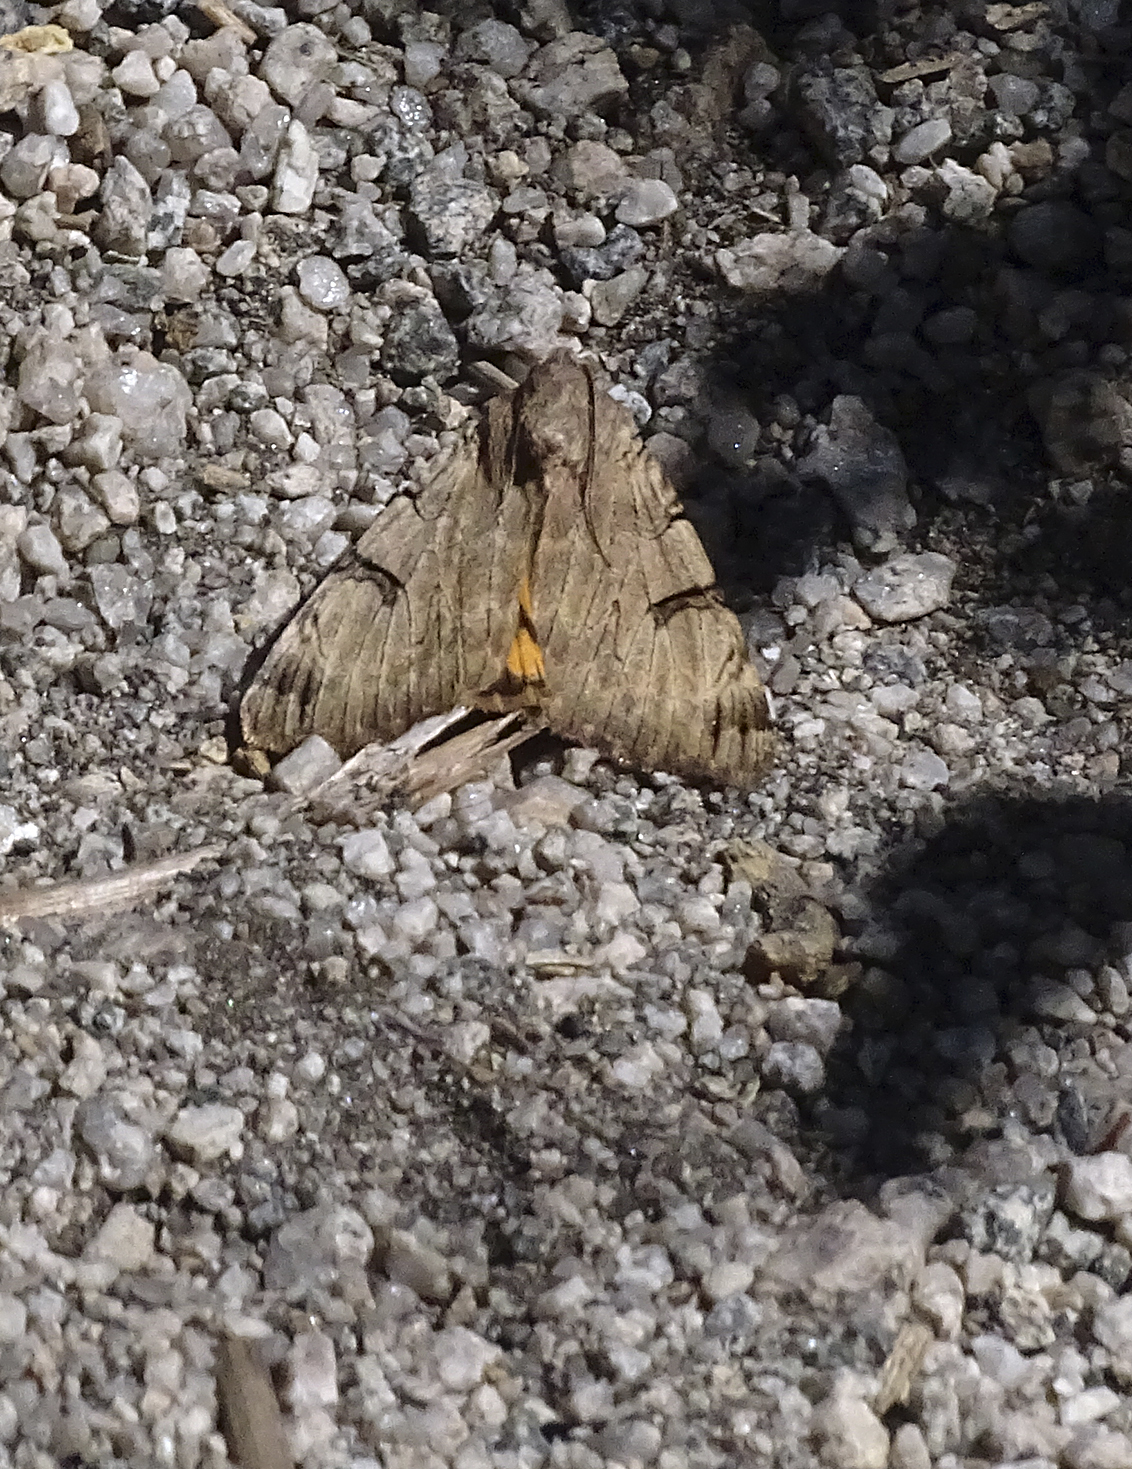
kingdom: Animalia
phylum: Arthropoda
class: Insecta
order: Lepidoptera
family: Erebidae
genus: Drasteria
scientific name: Drasteria ochracea
